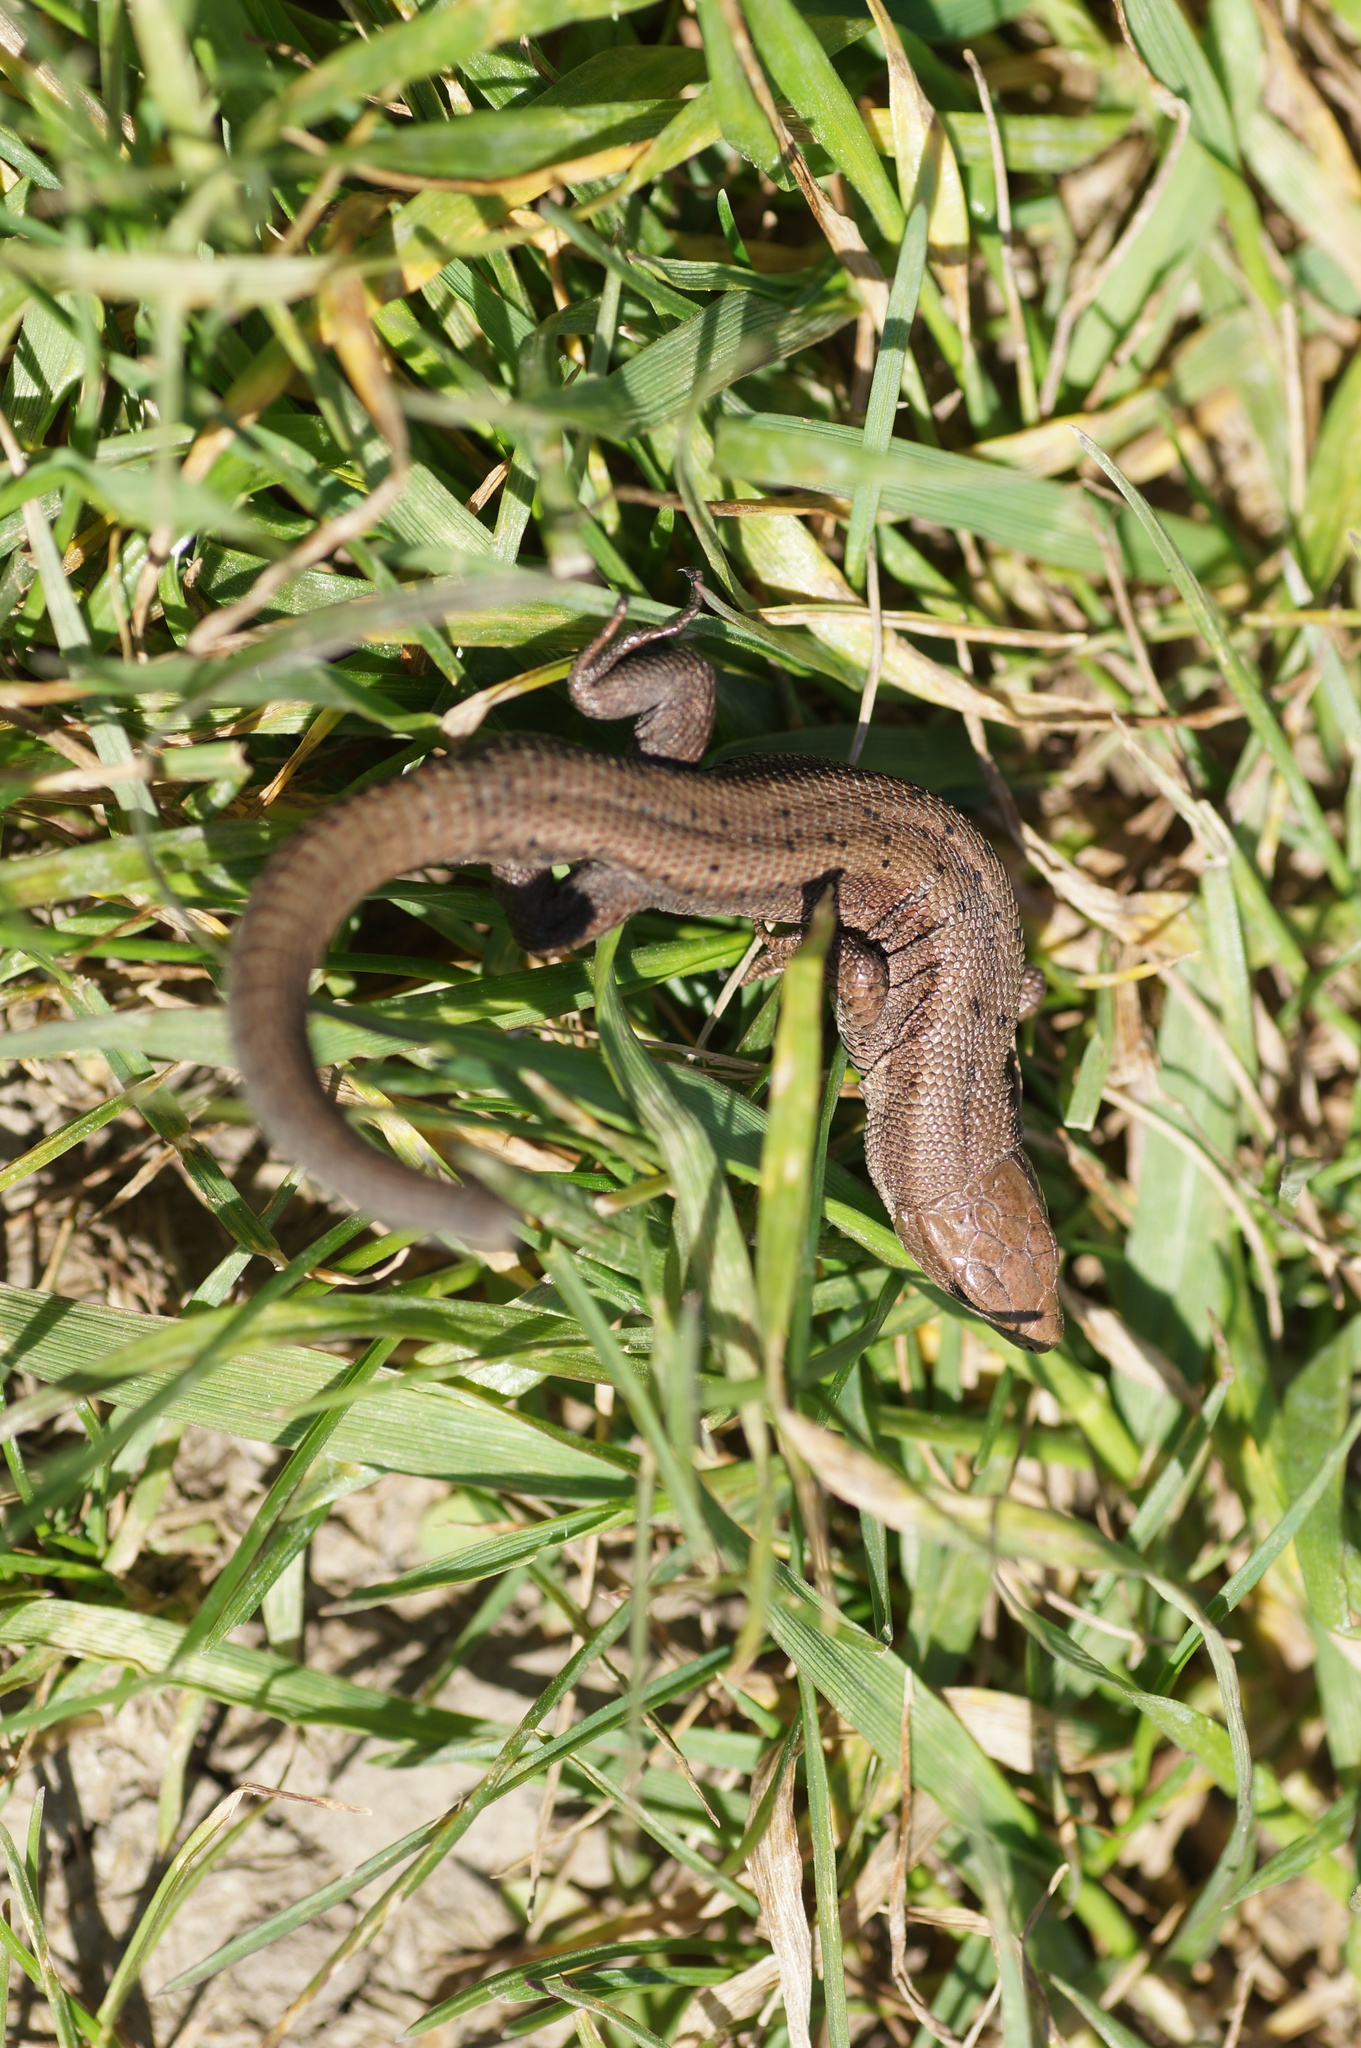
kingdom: Animalia
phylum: Chordata
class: Squamata
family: Lacertidae
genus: Zootoca
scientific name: Zootoca vivipara
